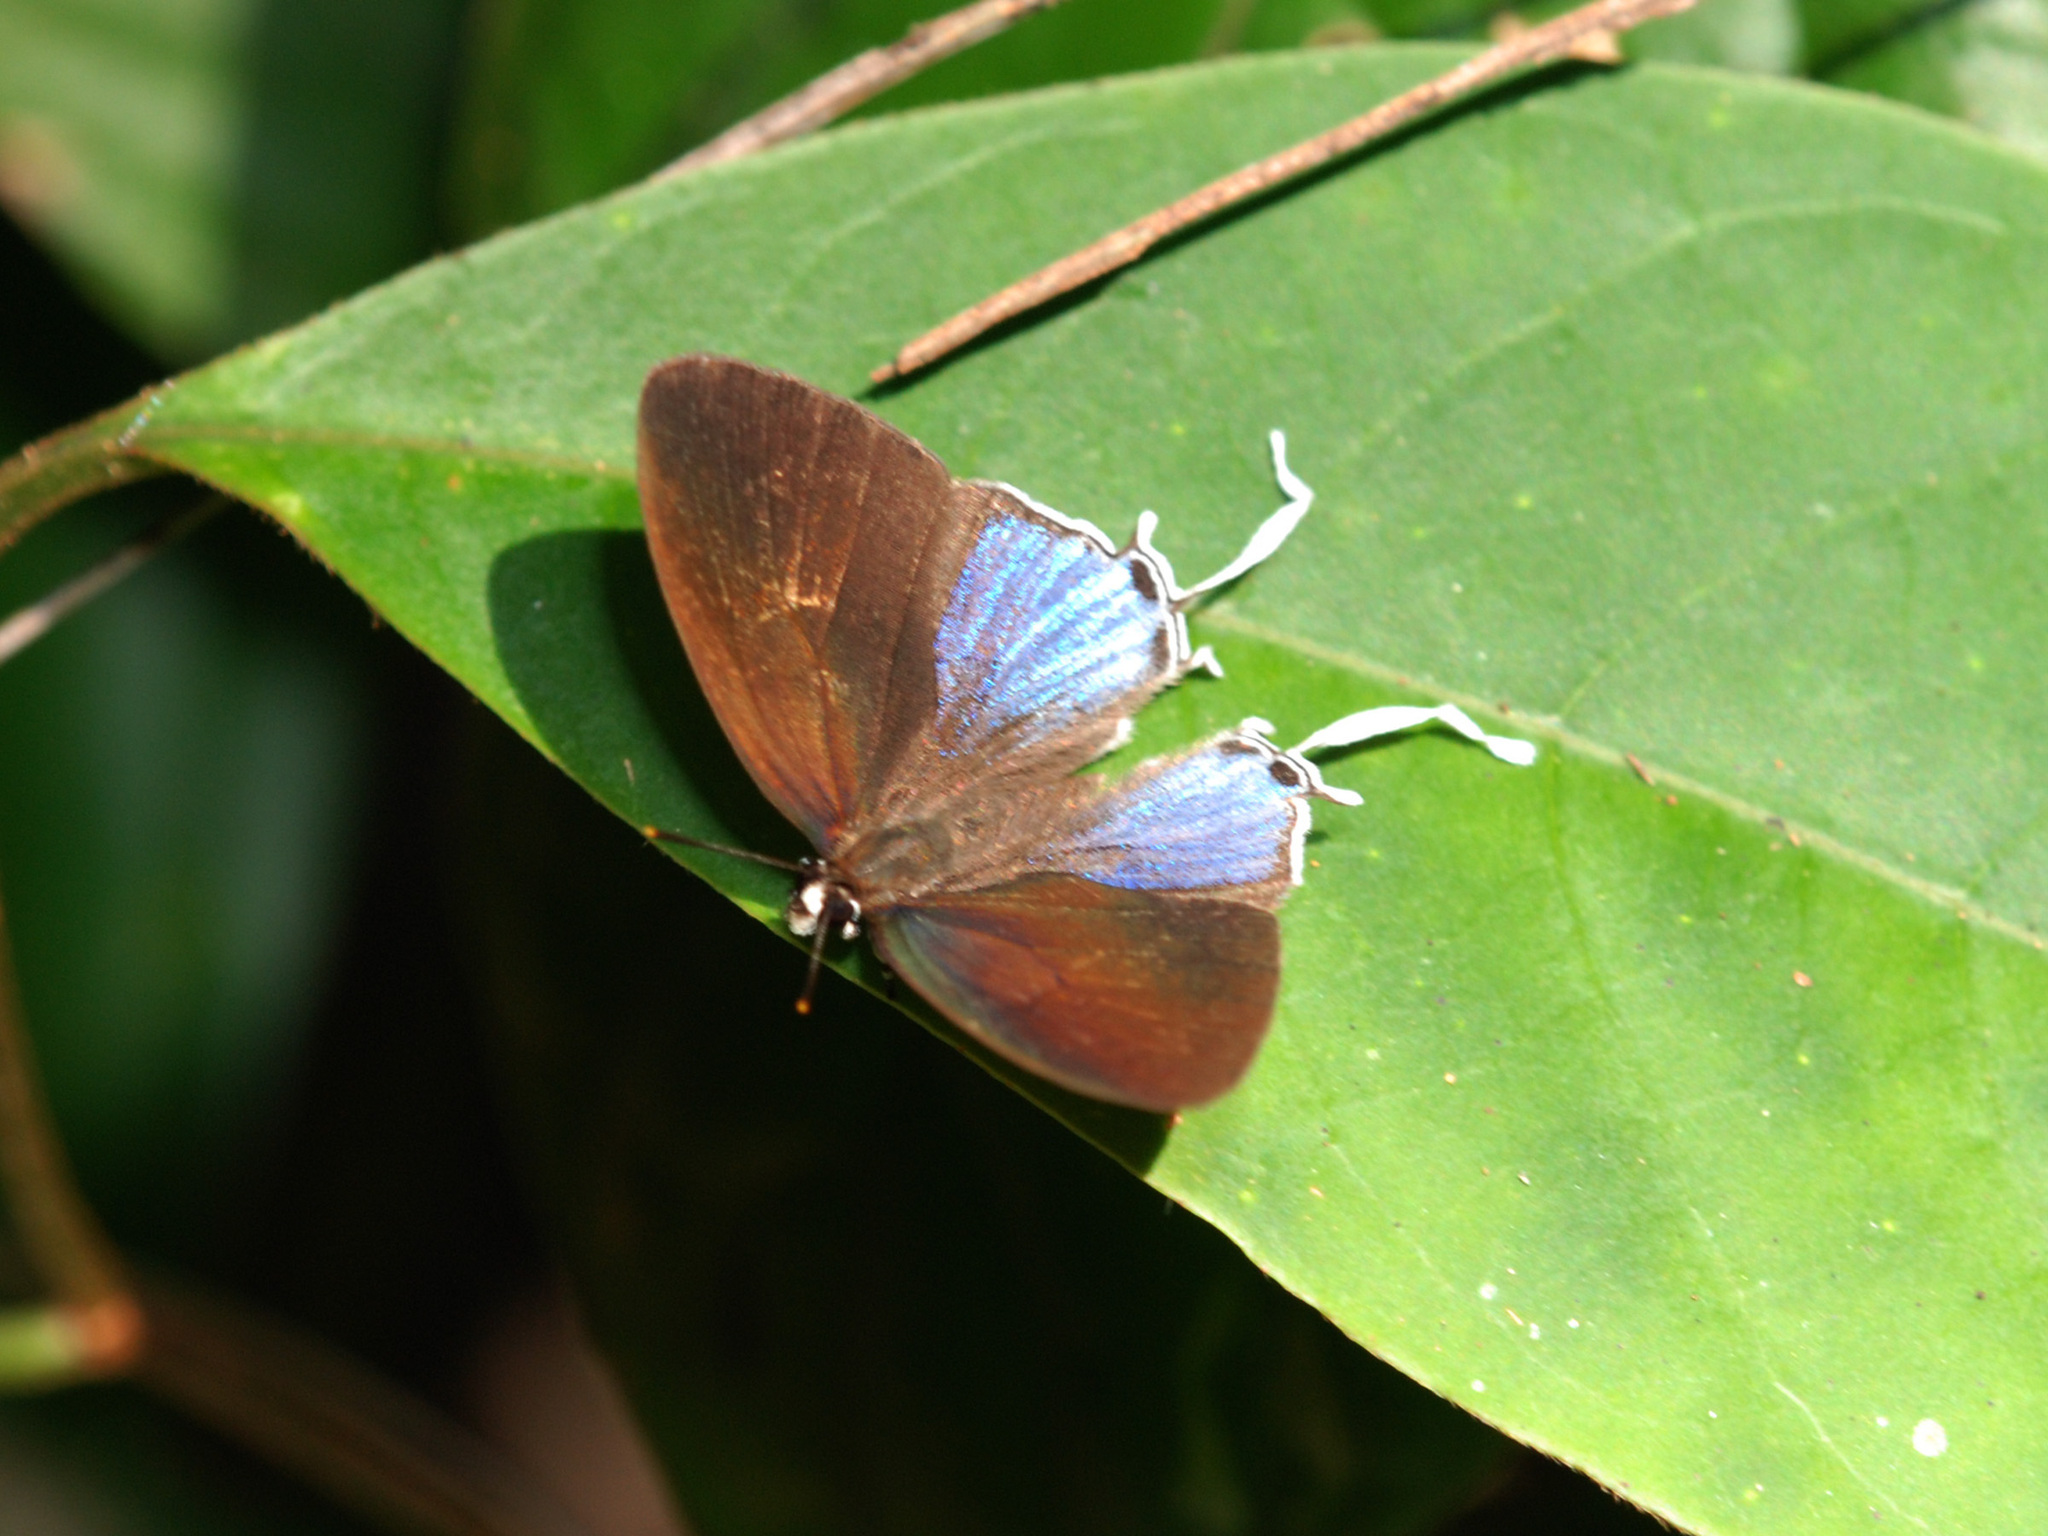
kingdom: Animalia
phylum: Arthropoda
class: Insecta
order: Lepidoptera
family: Lycaenidae
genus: Drupadia
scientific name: Drupadia ravindra
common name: Common posy
